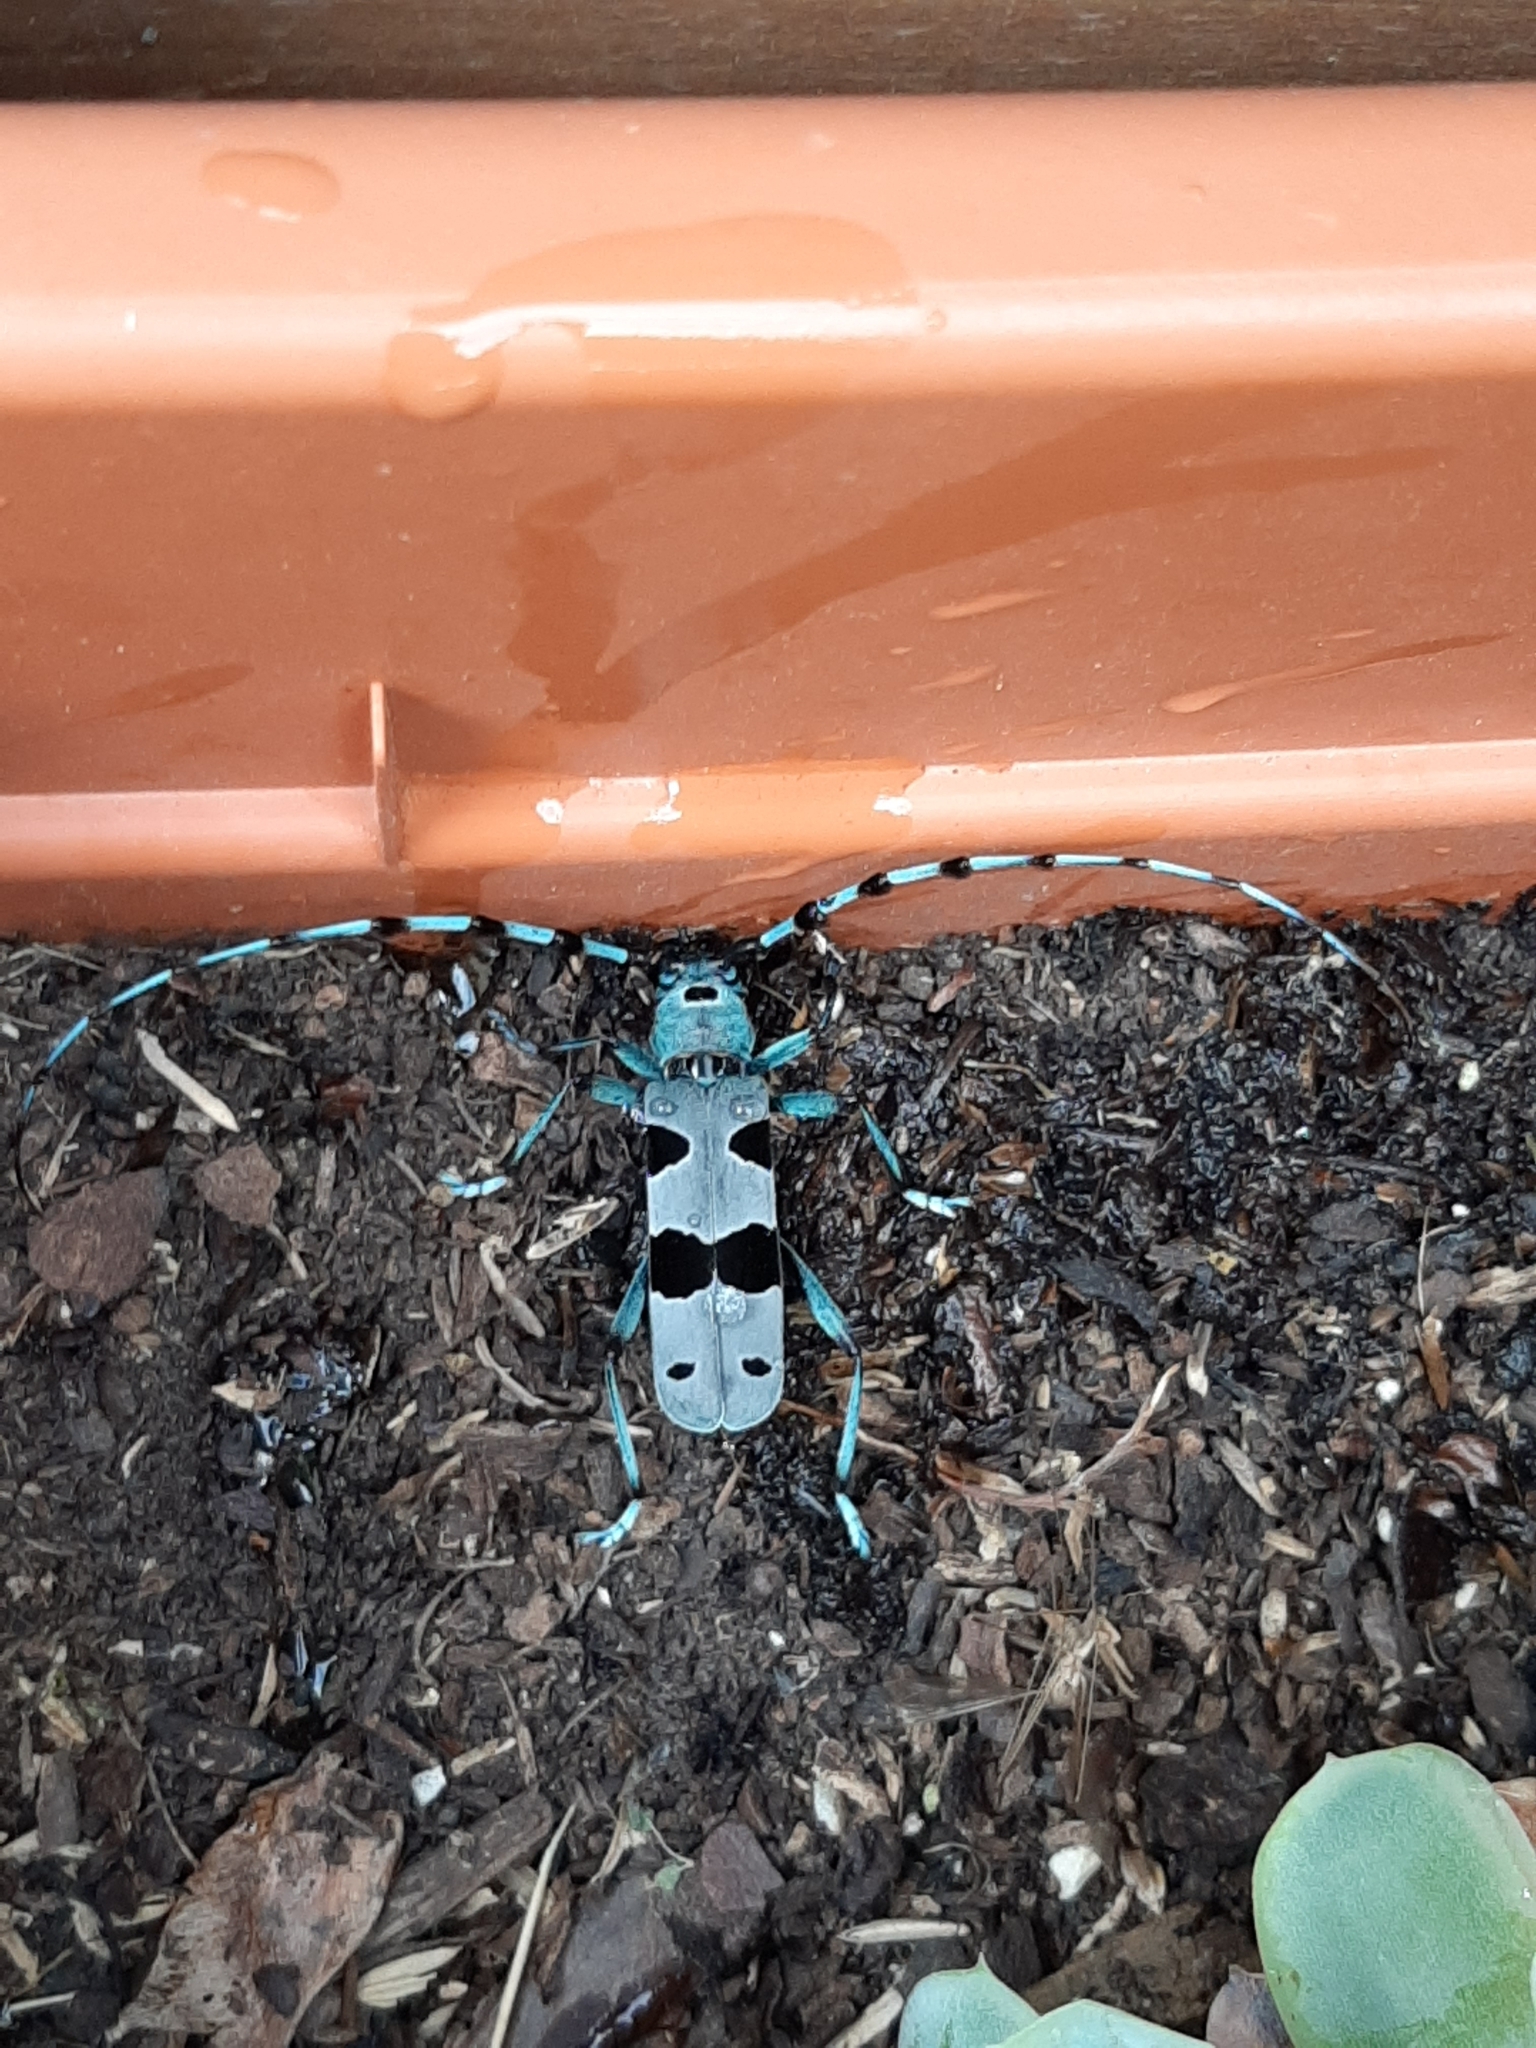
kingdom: Animalia
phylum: Arthropoda
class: Insecta
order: Coleoptera
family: Cerambycidae
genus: Rosalia
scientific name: Rosalia alpina
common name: Rosalia longicorn
